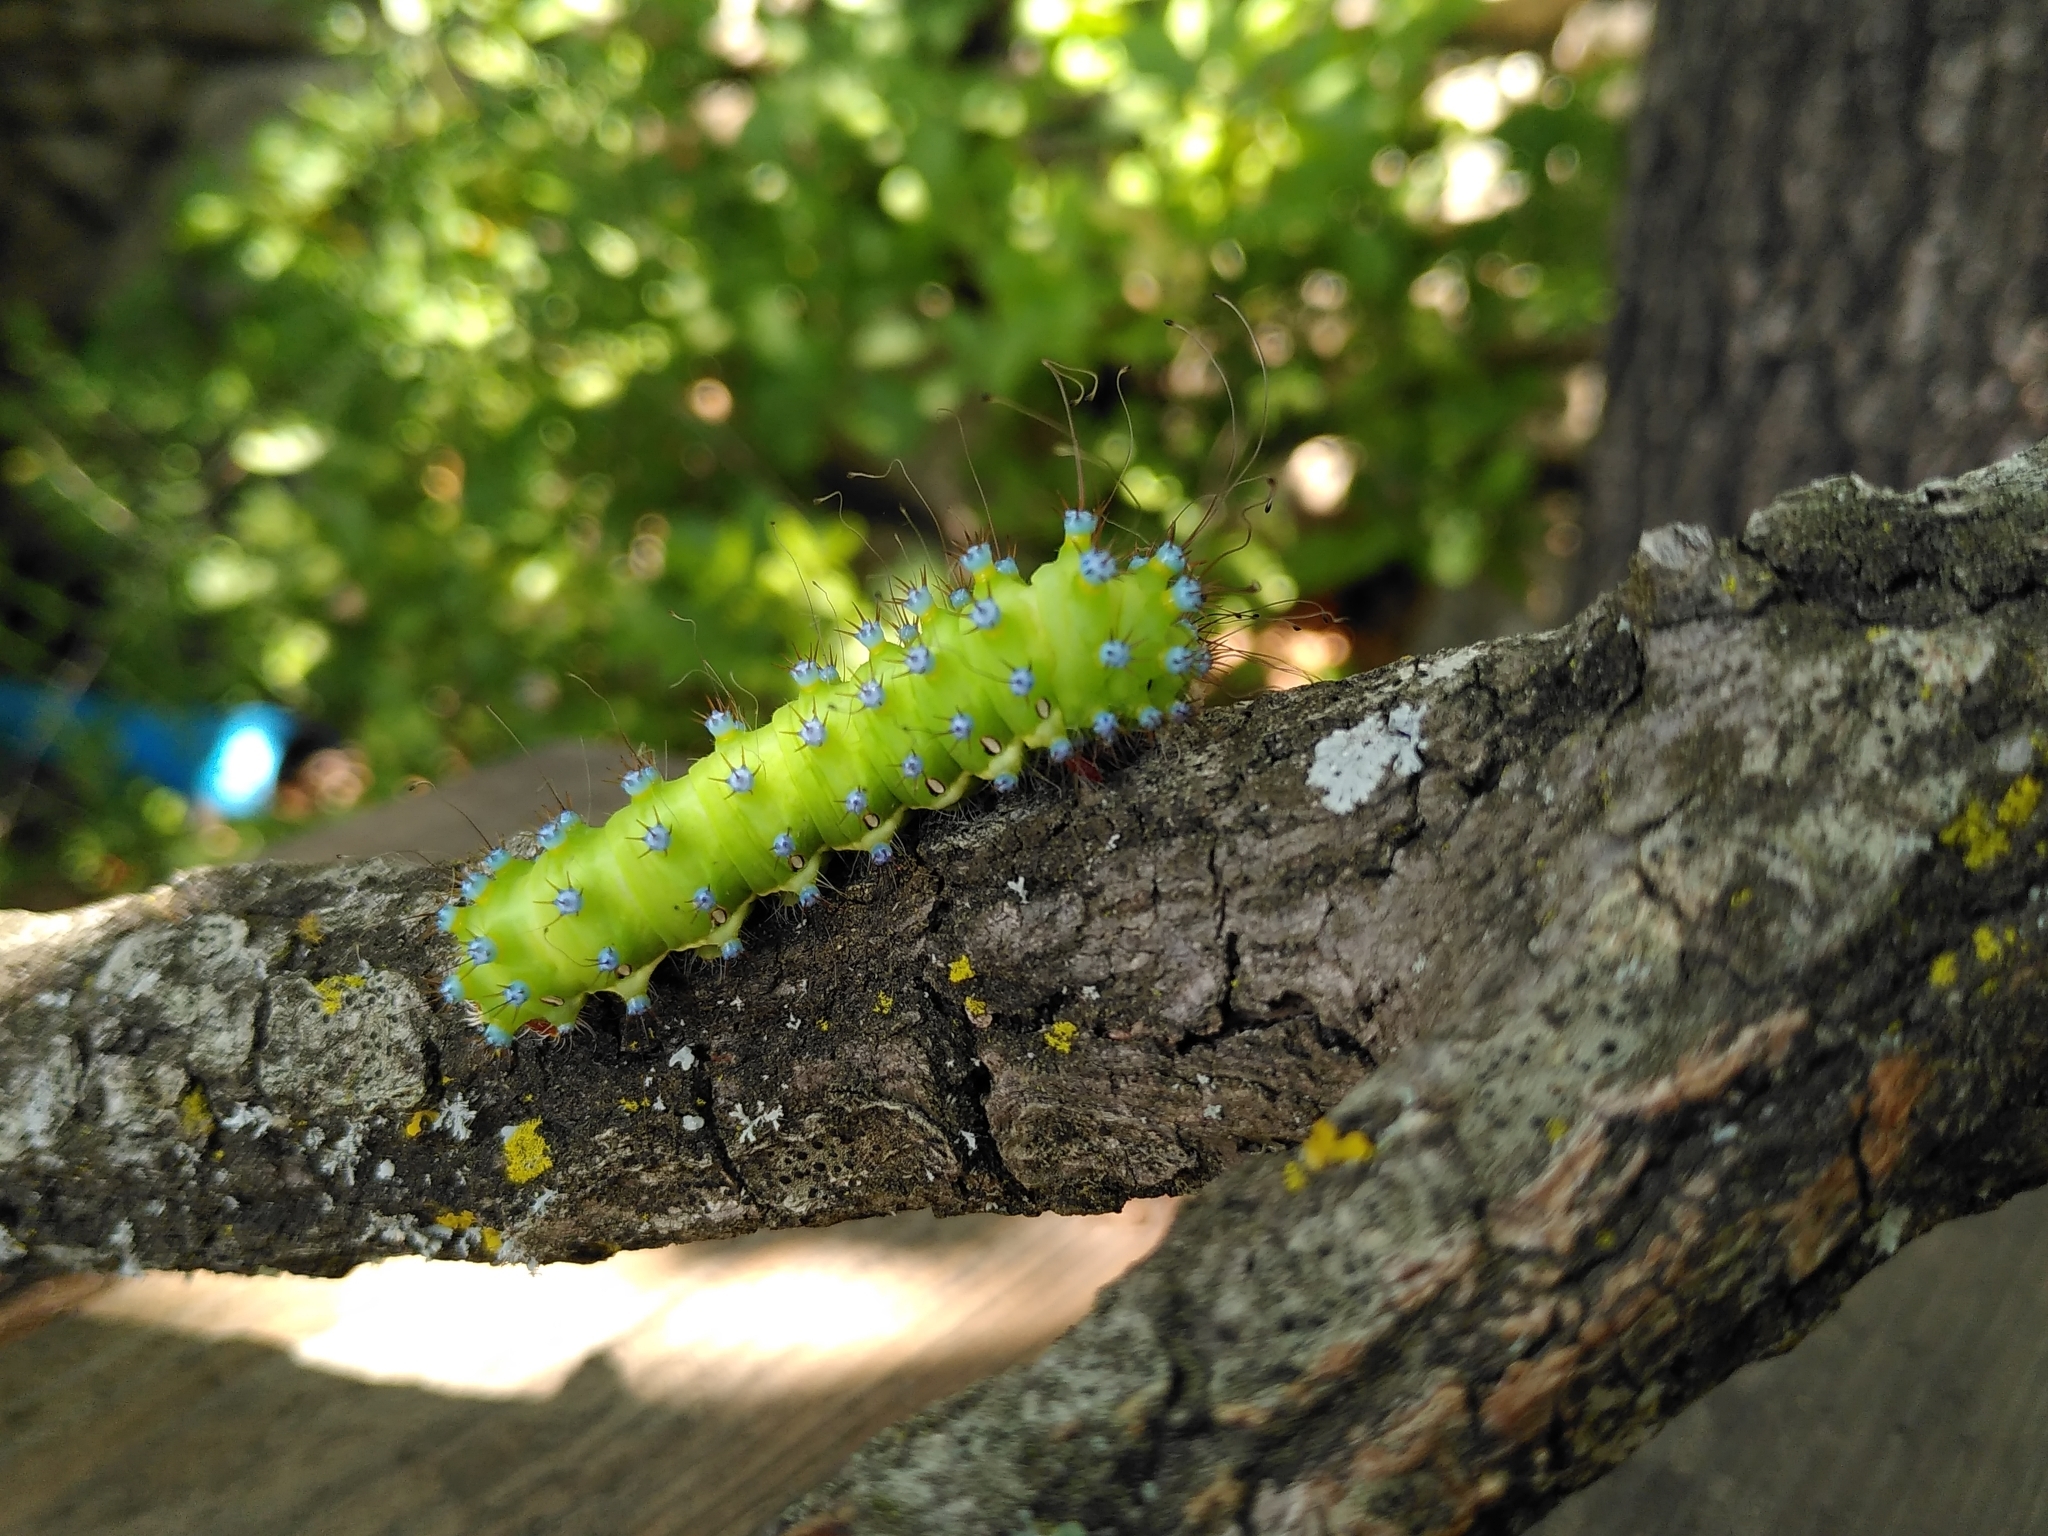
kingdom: Animalia
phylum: Arthropoda
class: Insecta
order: Lepidoptera
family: Saturniidae
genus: Saturnia
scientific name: Saturnia pyri
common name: Great peacock moth
